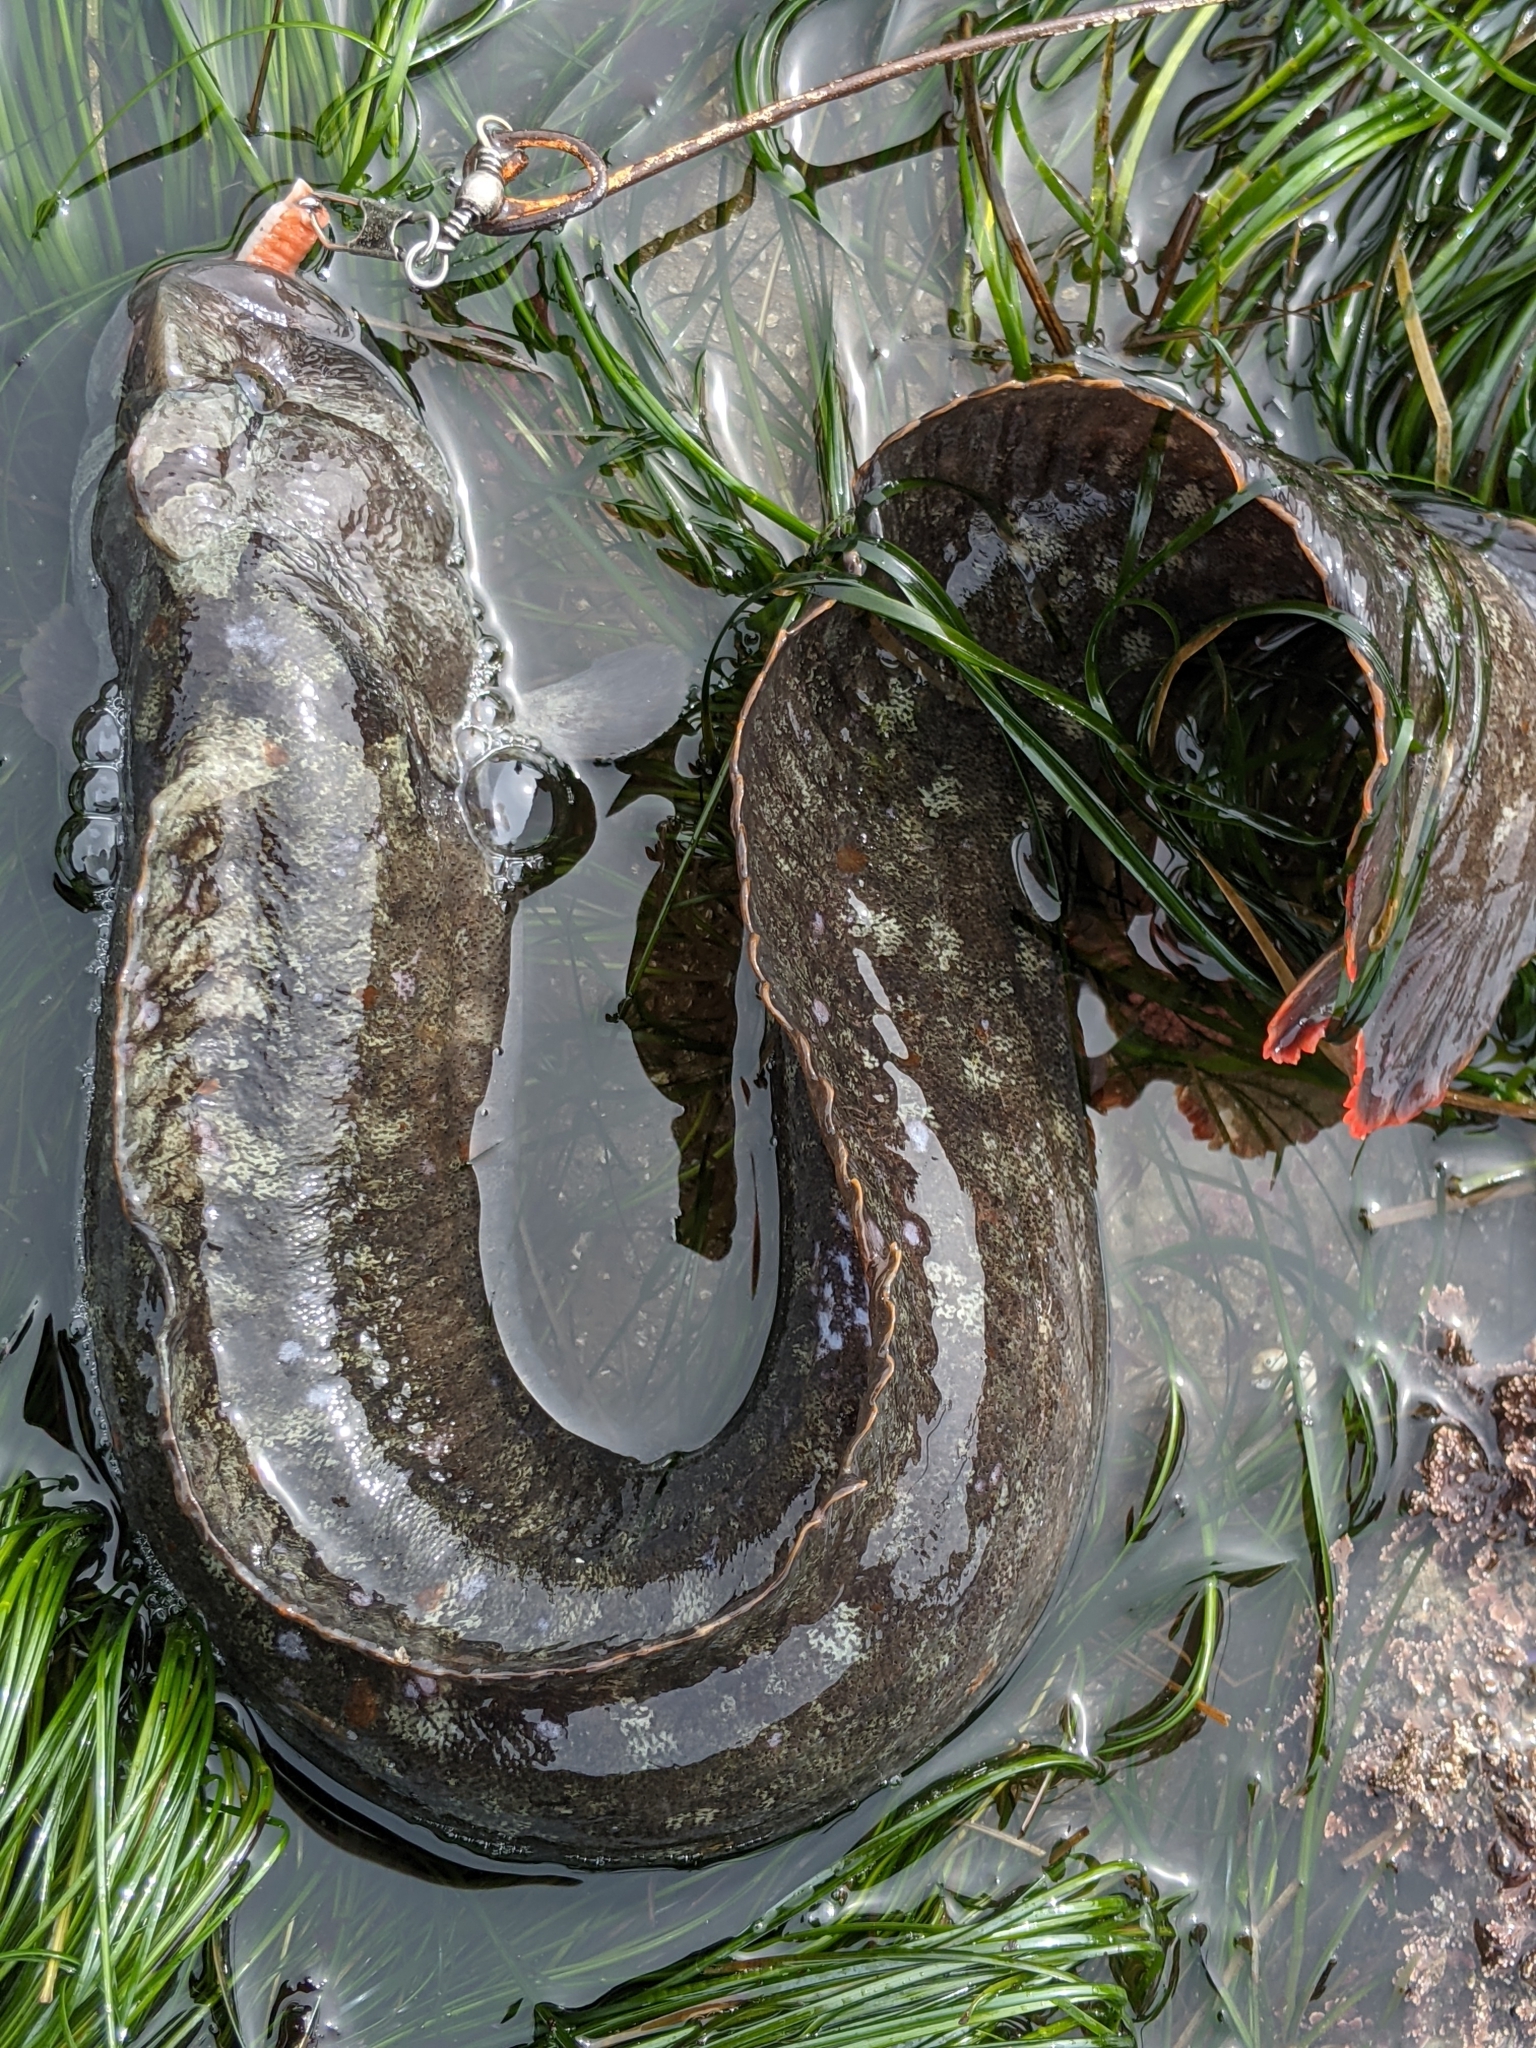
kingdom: Animalia
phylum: Chordata
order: Perciformes
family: Stichaeidae
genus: Cebidichthys
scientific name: Cebidichthys violaceus
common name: Monkeyface prickleback
